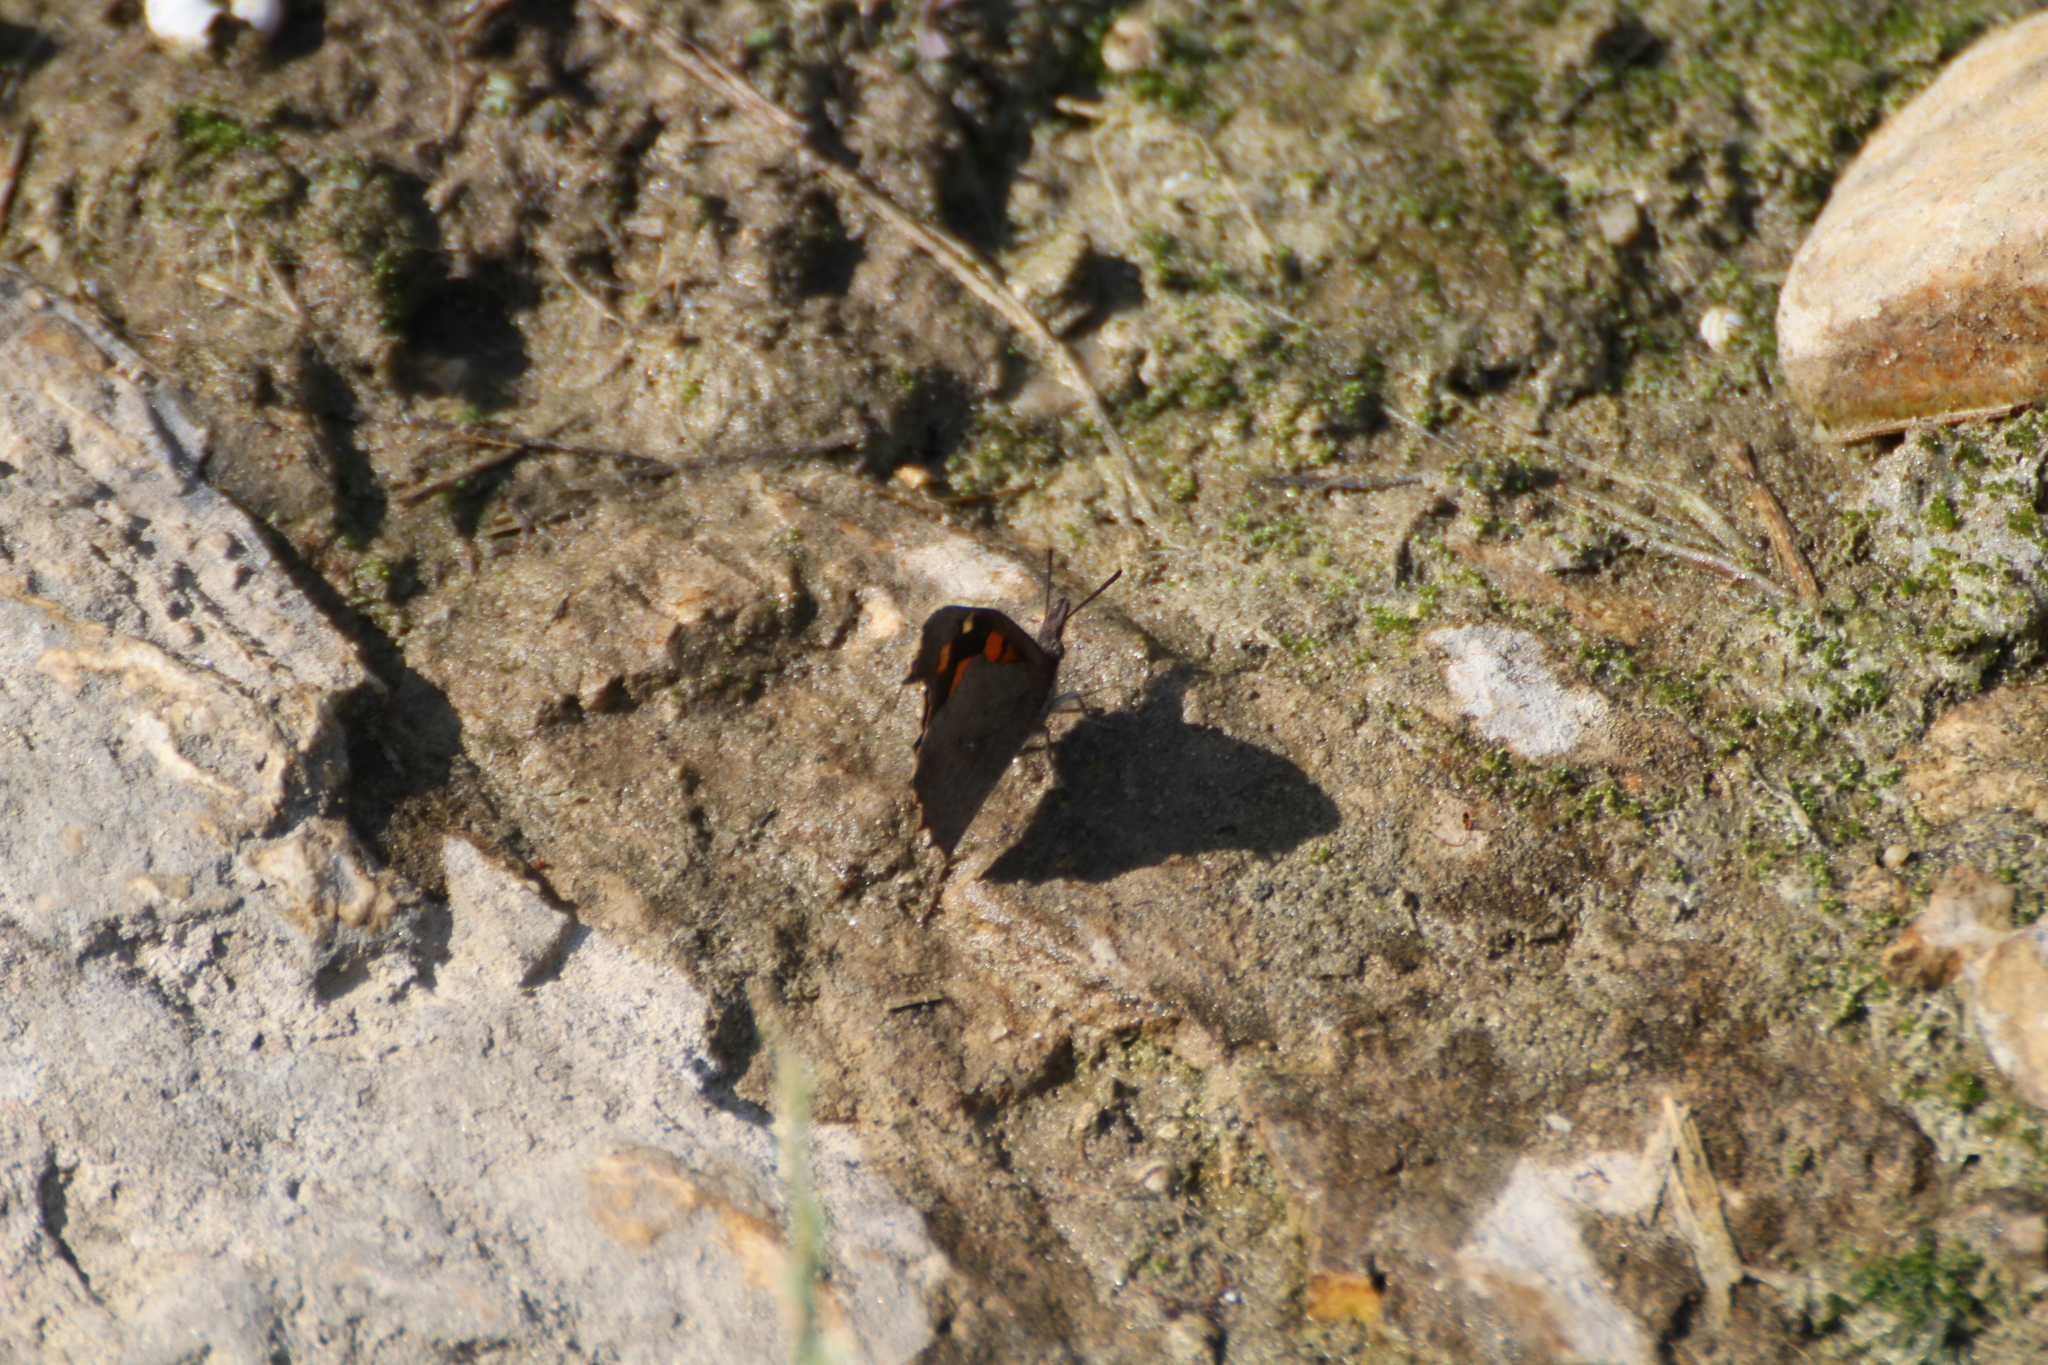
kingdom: Animalia
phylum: Arthropoda
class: Insecta
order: Lepidoptera
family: Nymphalidae
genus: Libythea
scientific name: Libythea celtis
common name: Nettle-tree butterfly
